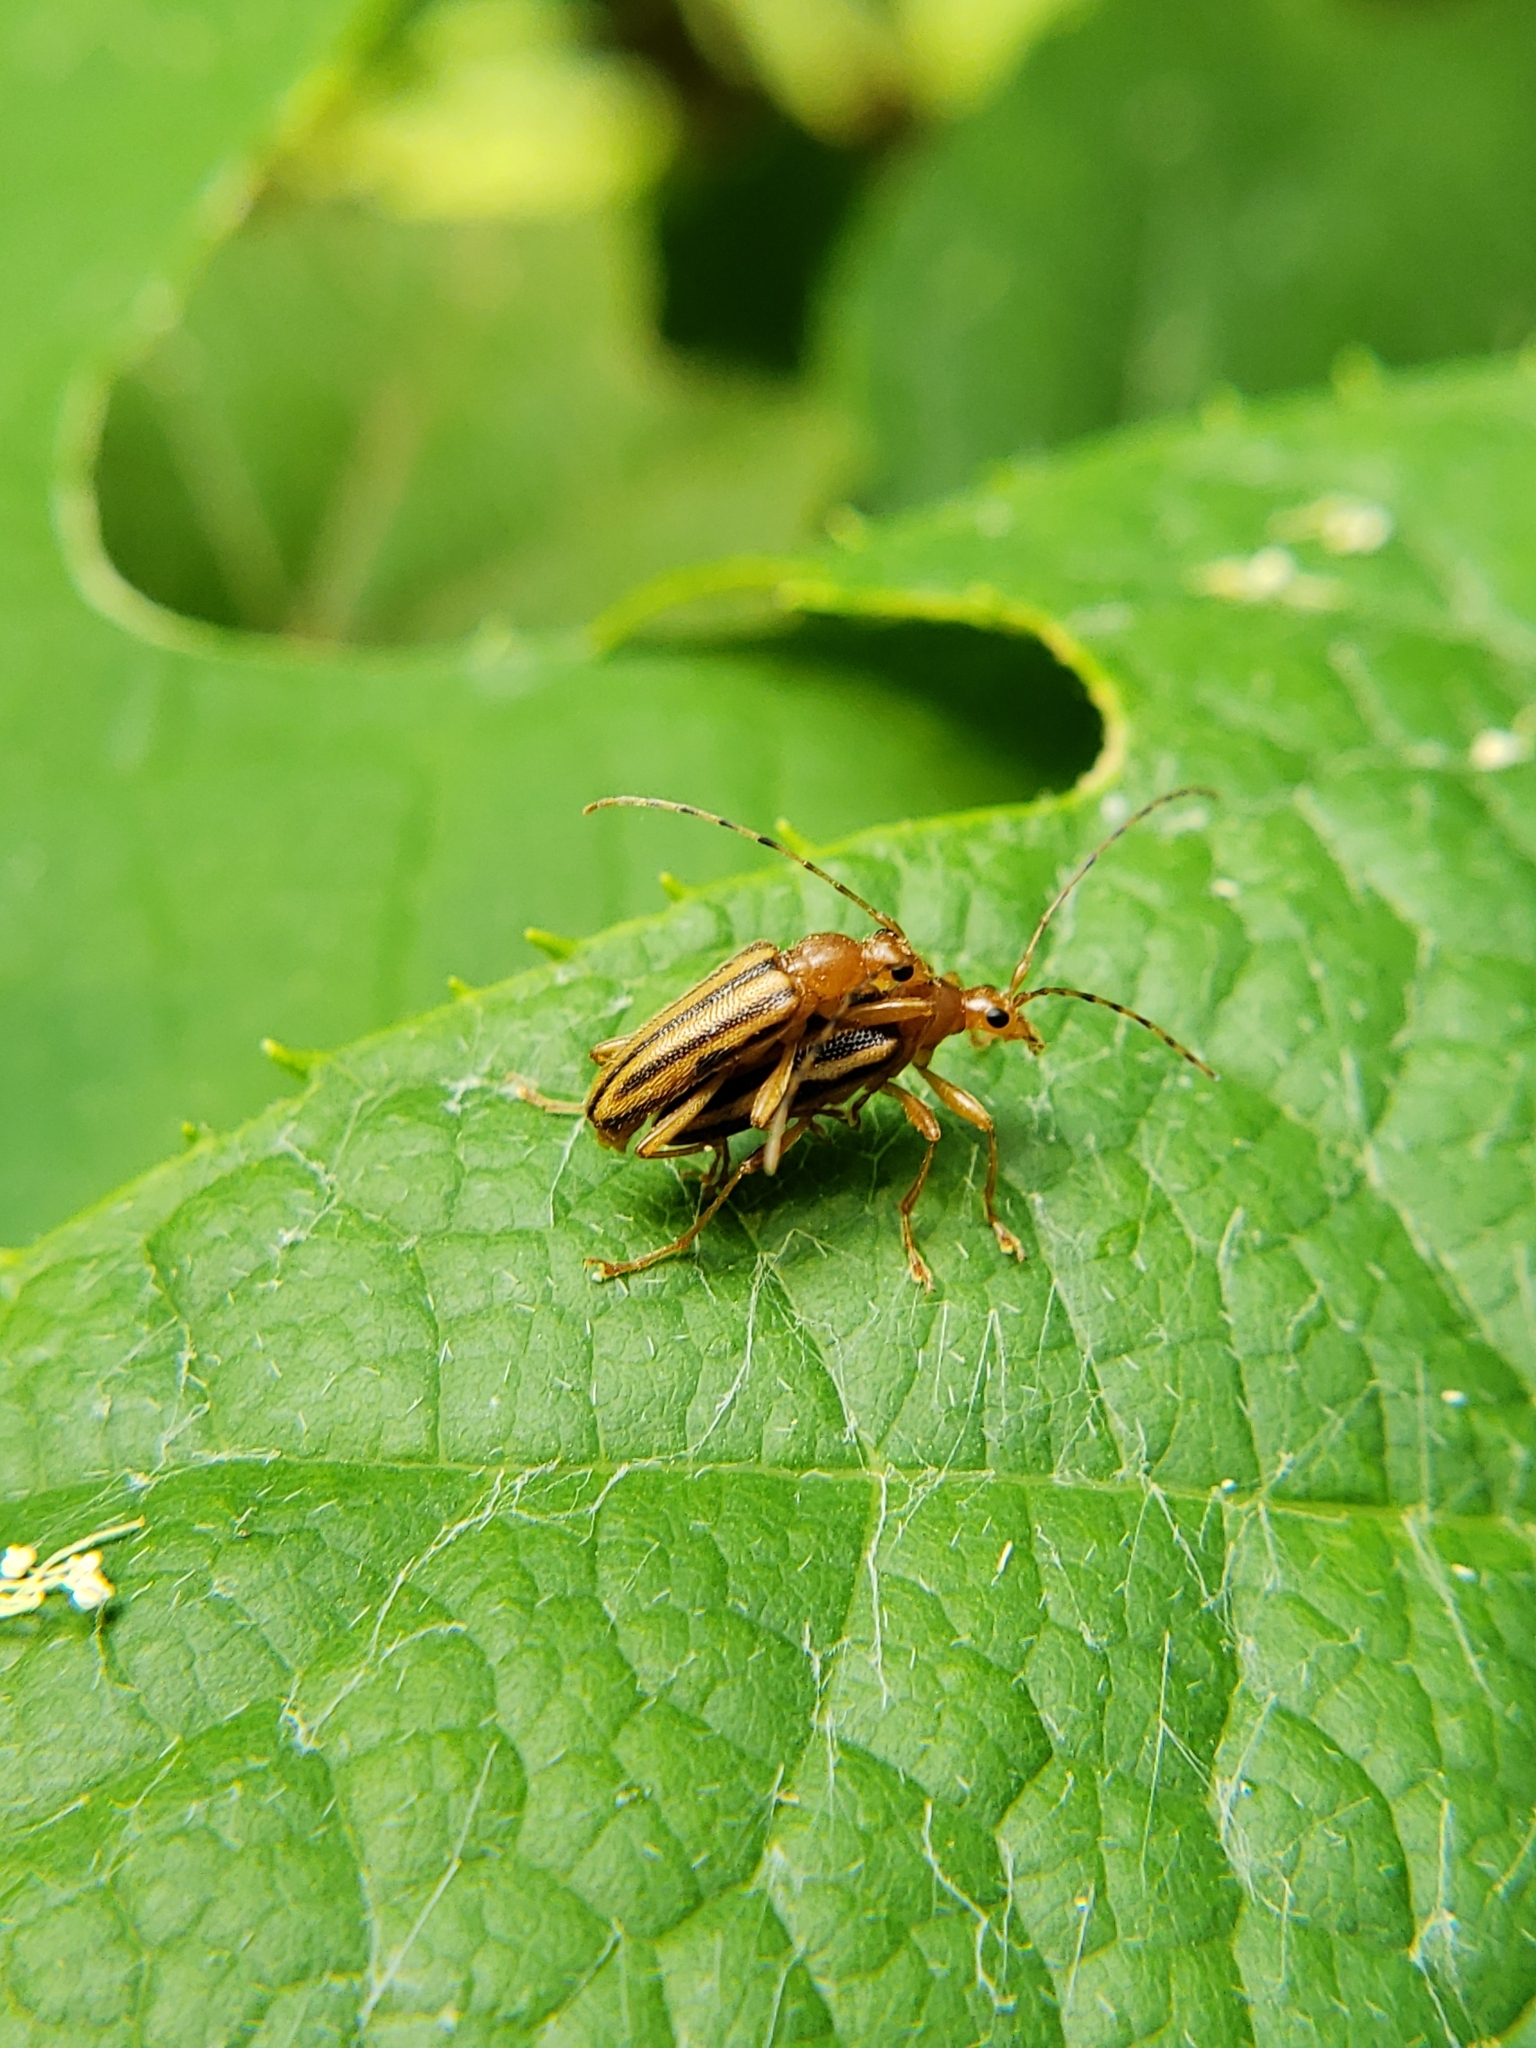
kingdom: Animalia
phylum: Arthropoda
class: Insecta
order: Coleoptera
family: Cerambycidae
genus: Metacmaeops
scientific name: Metacmaeops vittata
